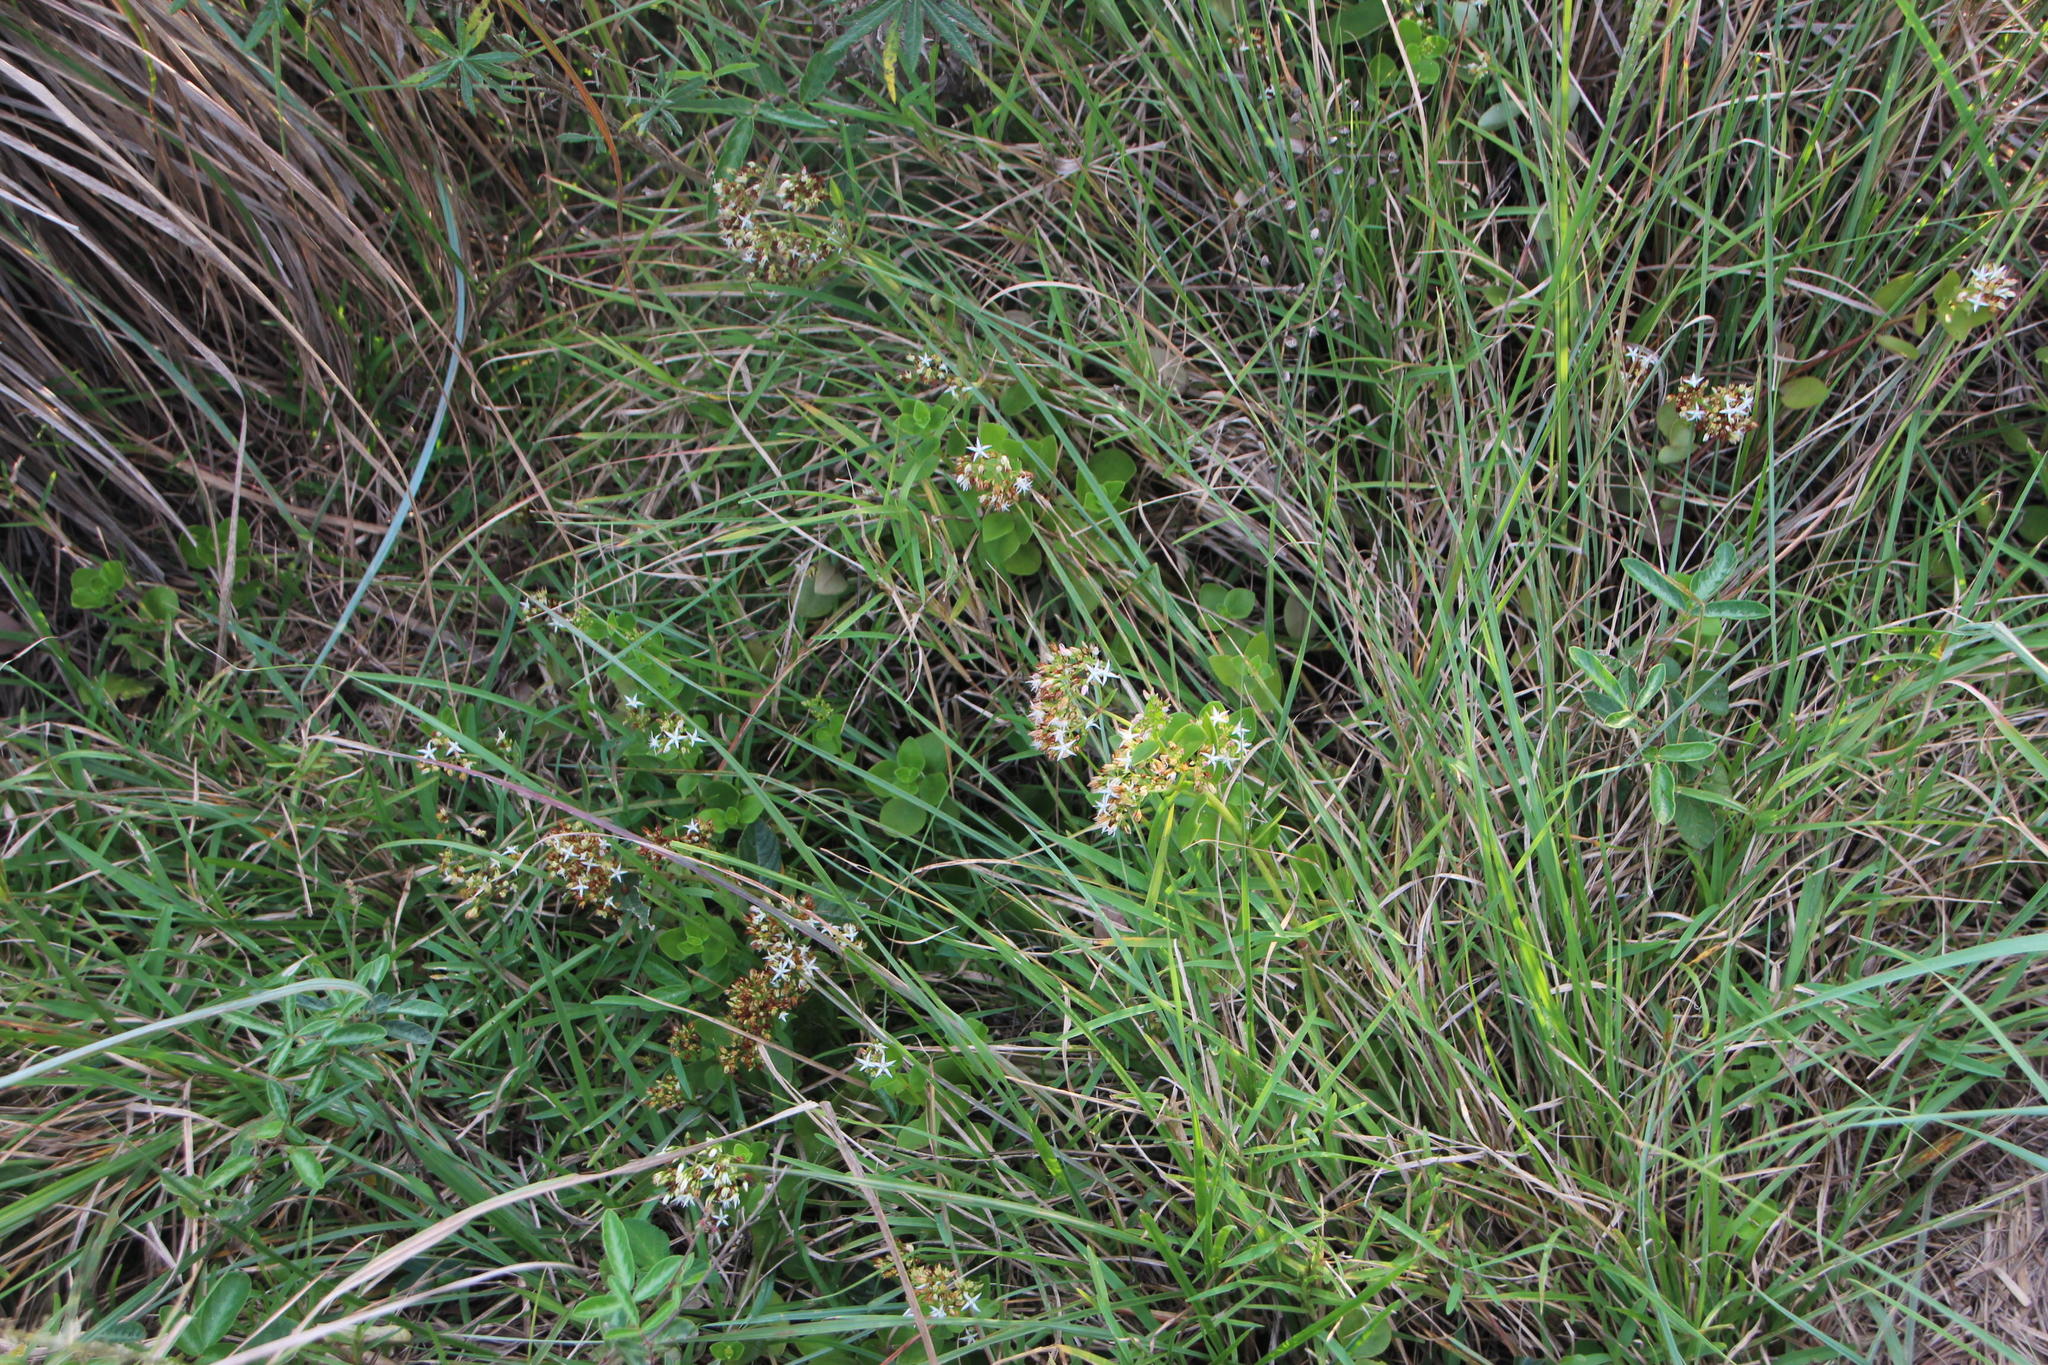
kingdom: Plantae
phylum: Tracheophyta
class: Magnoliopsida
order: Saxifragales
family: Crassulaceae
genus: Crassula
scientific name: Crassula pellucida
